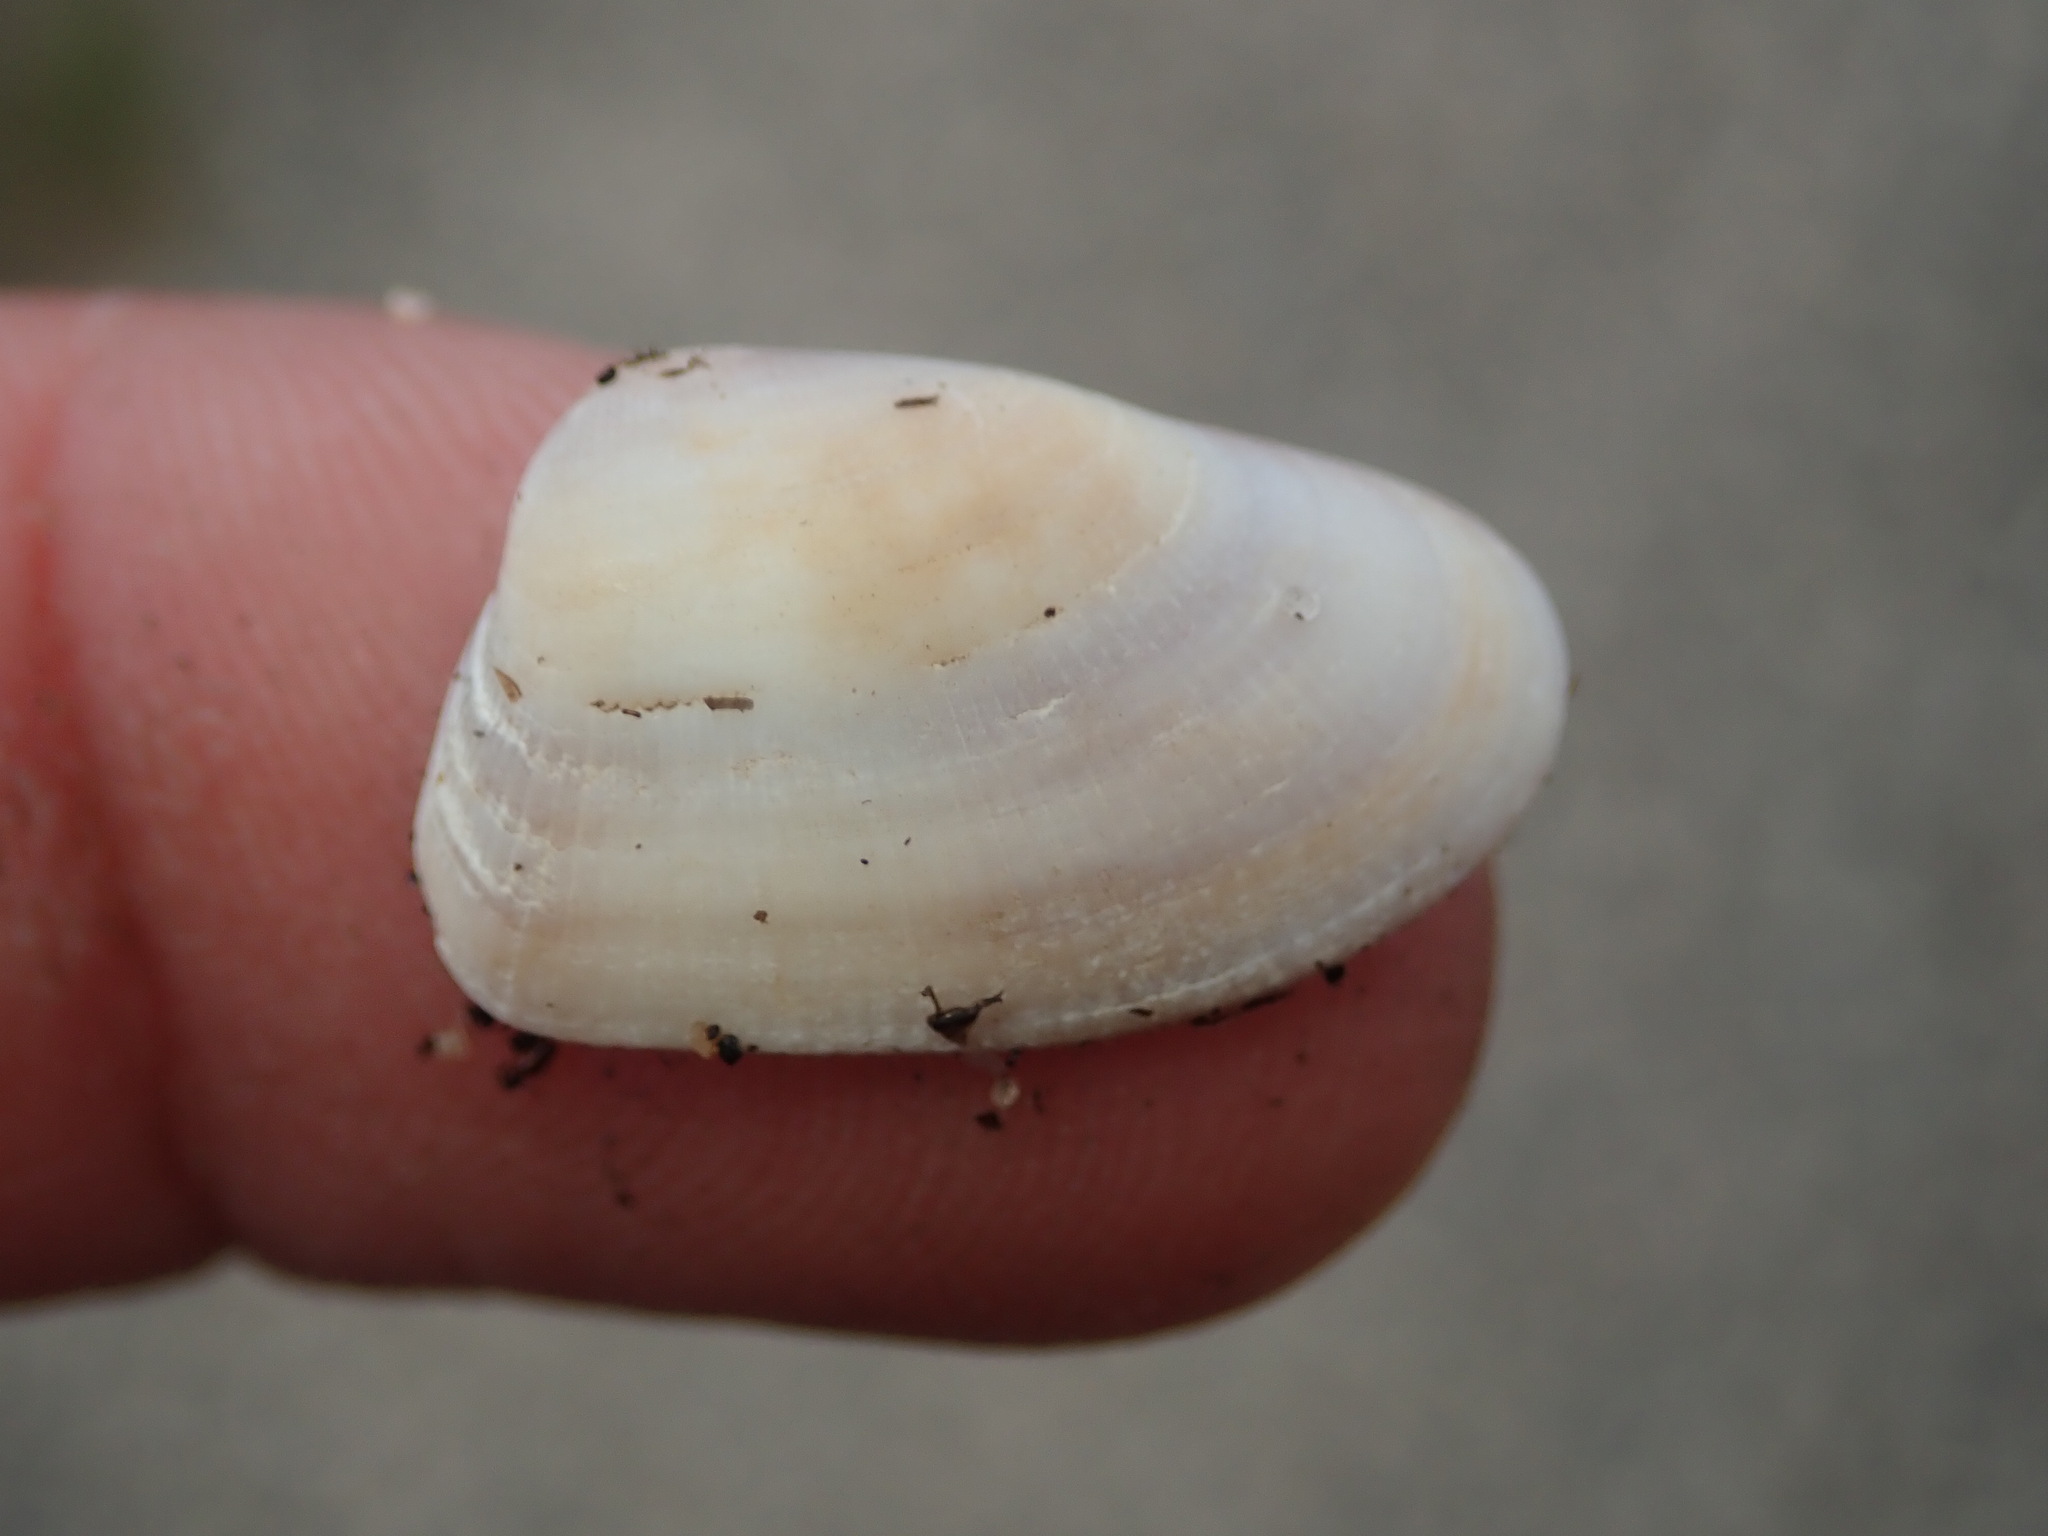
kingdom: Animalia
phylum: Mollusca
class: Bivalvia
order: Cardiida
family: Donacidae
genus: Donax
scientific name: Donax gouldii
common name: Gould beanclam
